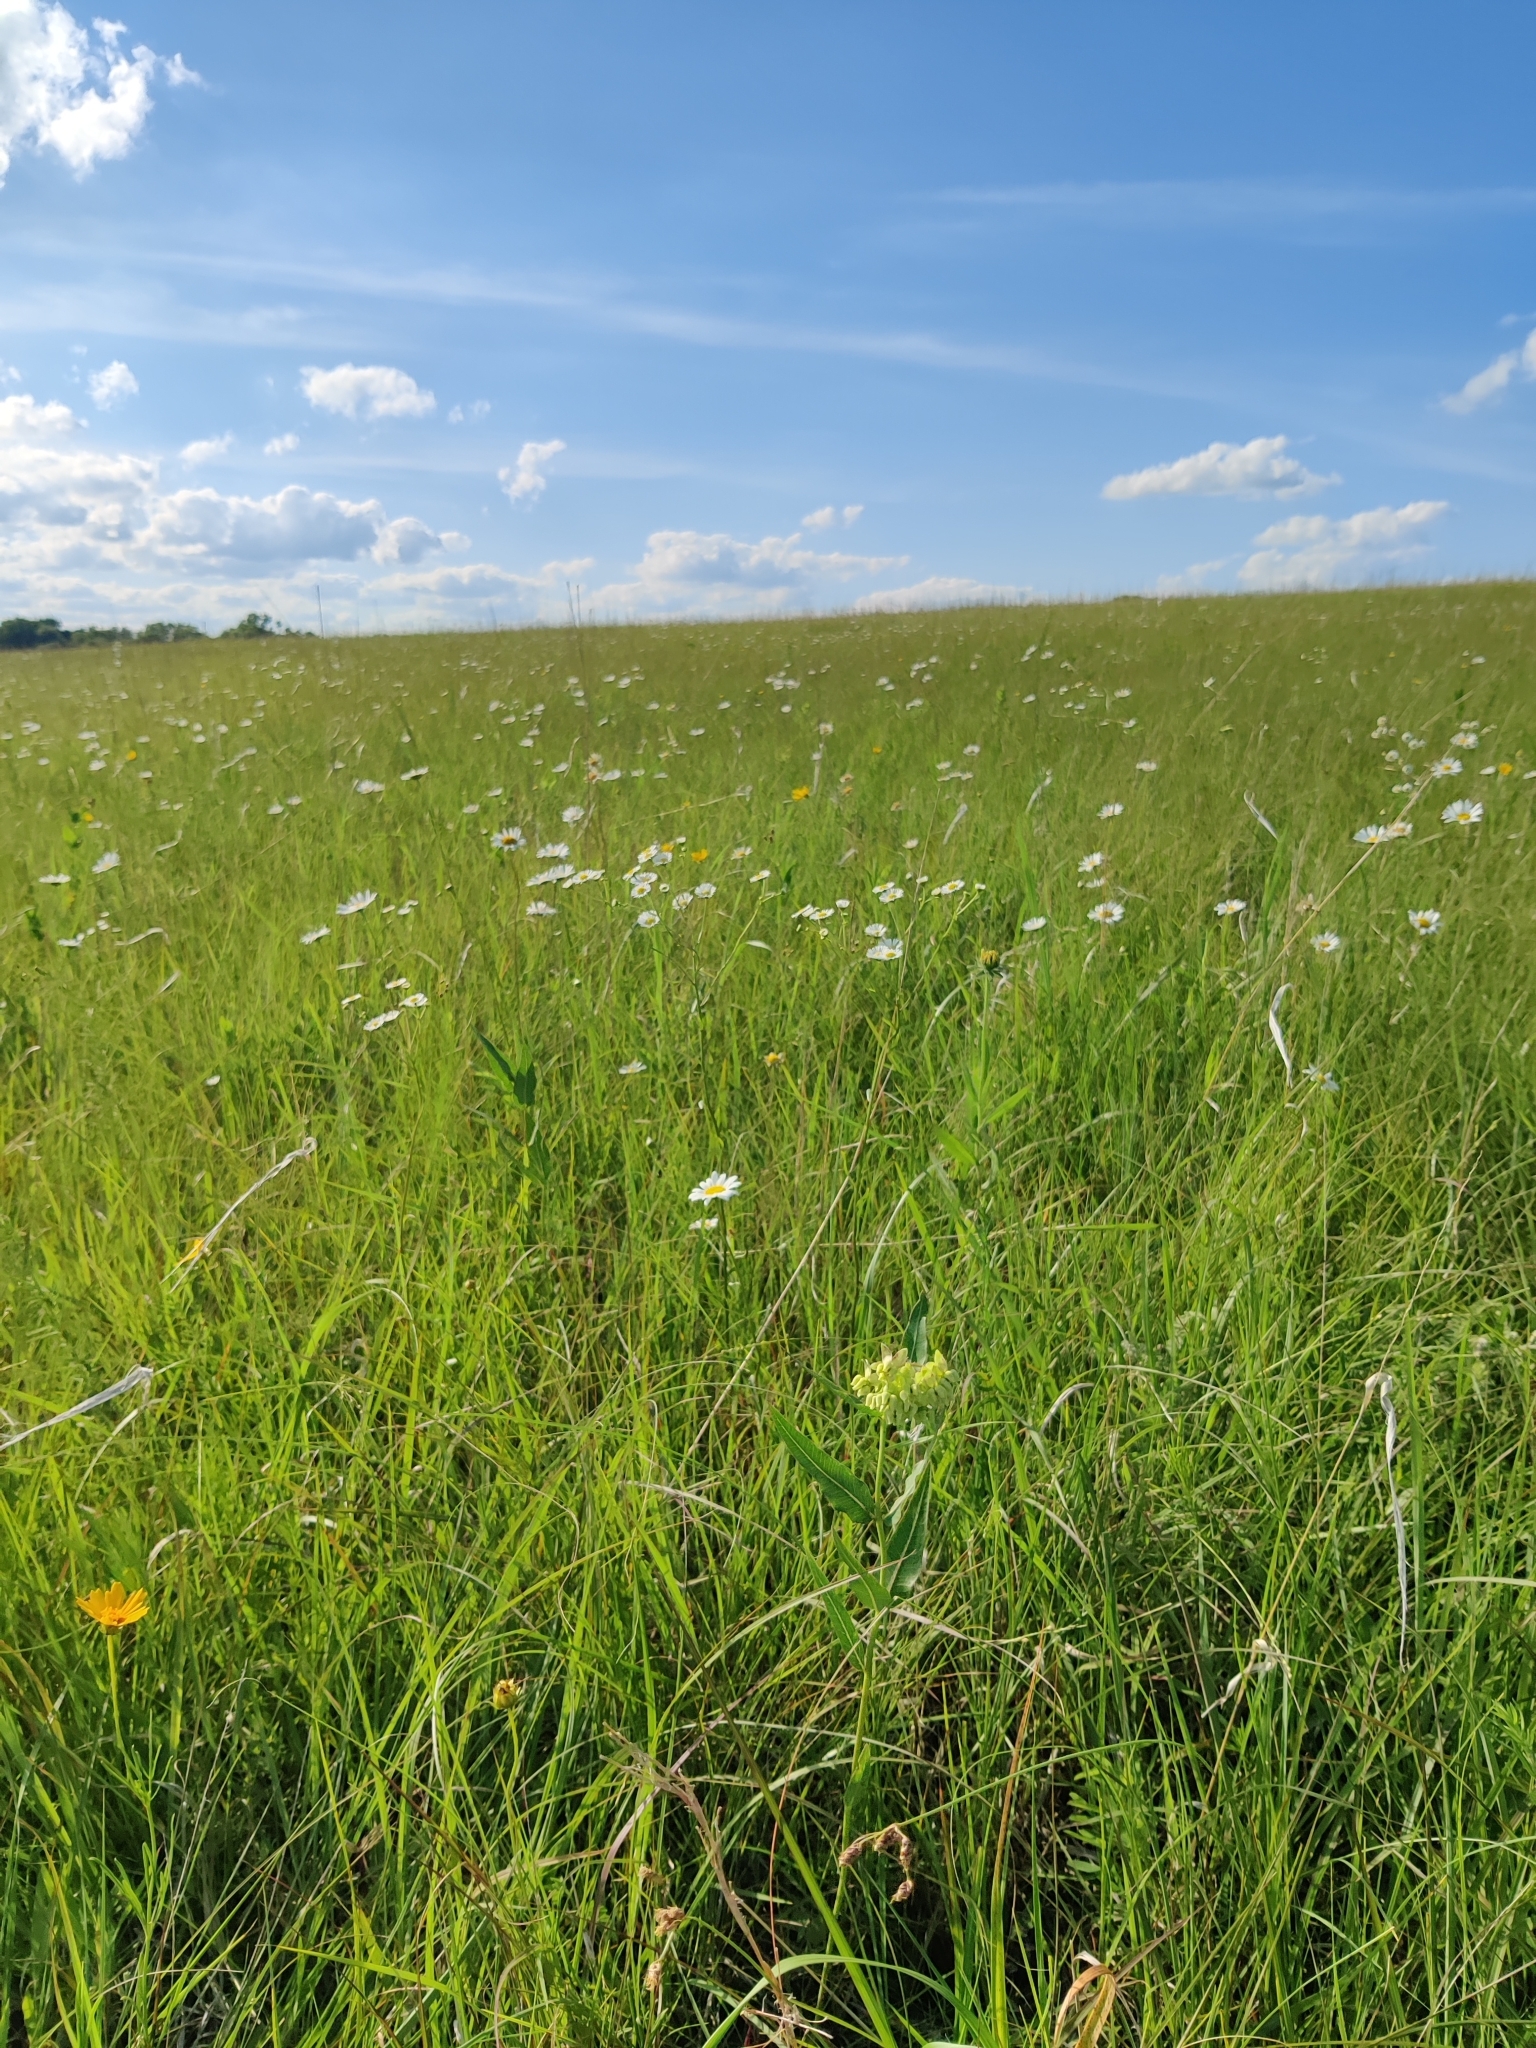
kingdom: Plantae
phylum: Tracheophyta
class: Magnoliopsida
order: Gentianales
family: Apocynaceae
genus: Asclepias
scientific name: Asclepias meadii
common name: Mead's milkweed
